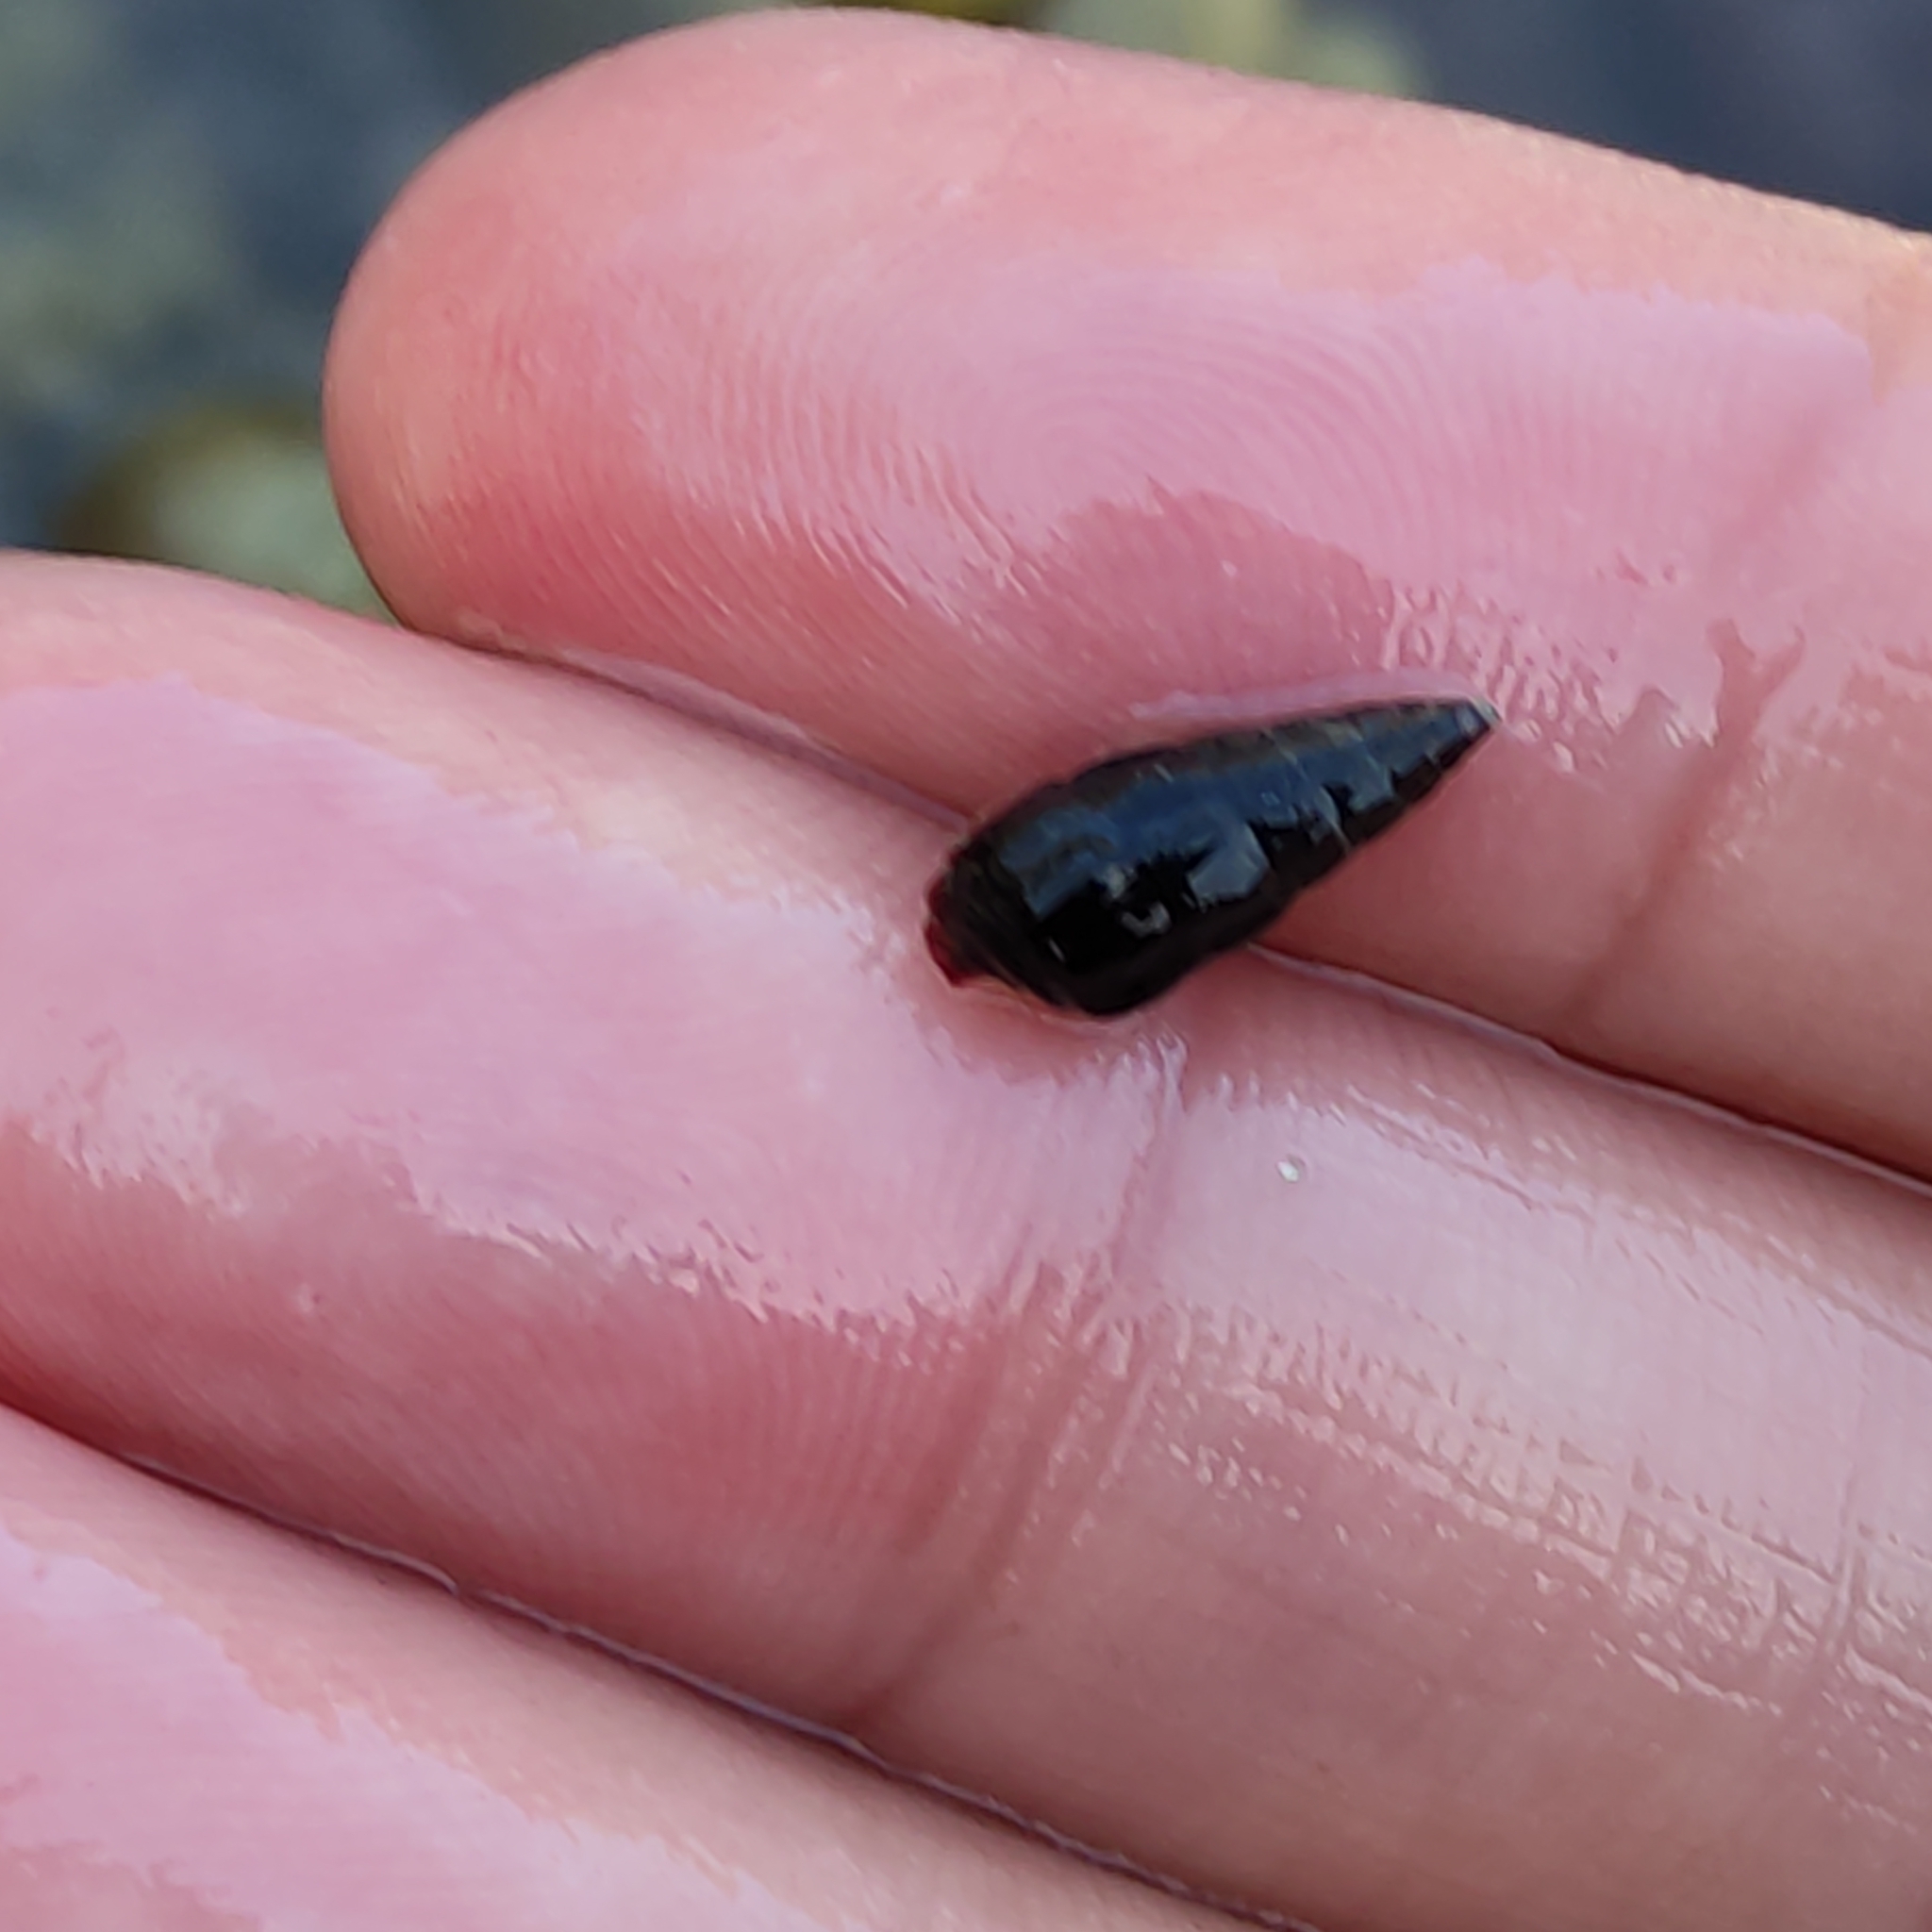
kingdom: Animalia
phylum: Mollusca
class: Gastropoda
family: Batillariidae
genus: Zeacumantus
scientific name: Zeacumantus subcarinatus
